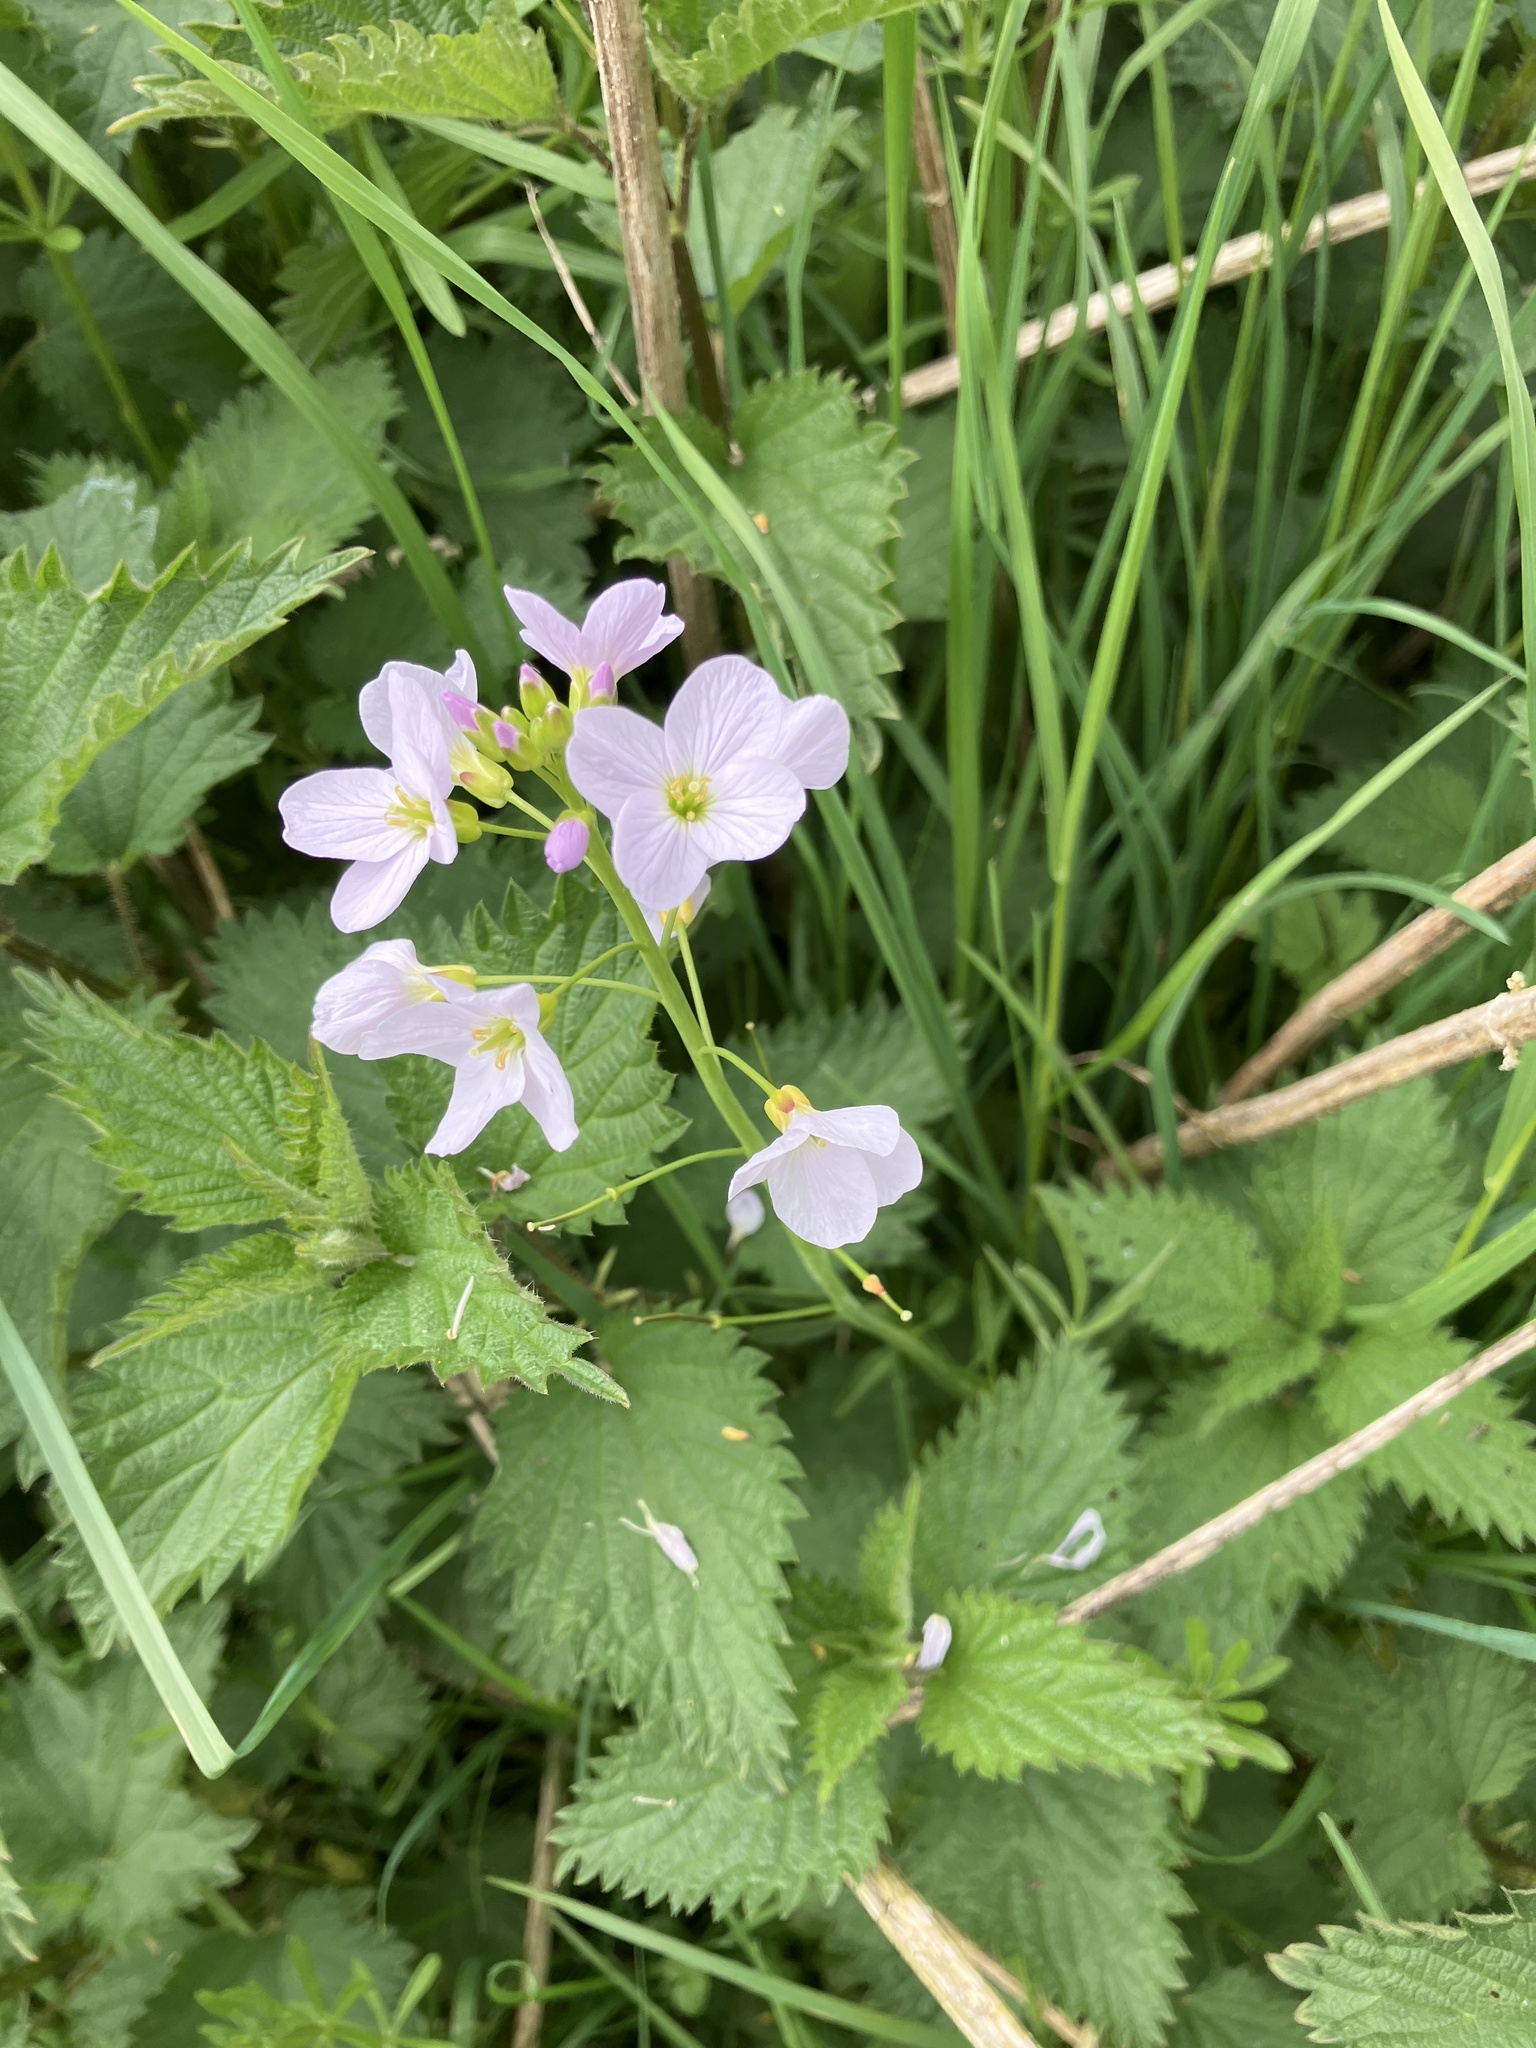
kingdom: Plantae
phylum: Tracheophyta
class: Magnoliopsida
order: Brassicales
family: Brassicaceae
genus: Cardamine
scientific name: Cardamine pratensis
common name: Cuckoo flower
